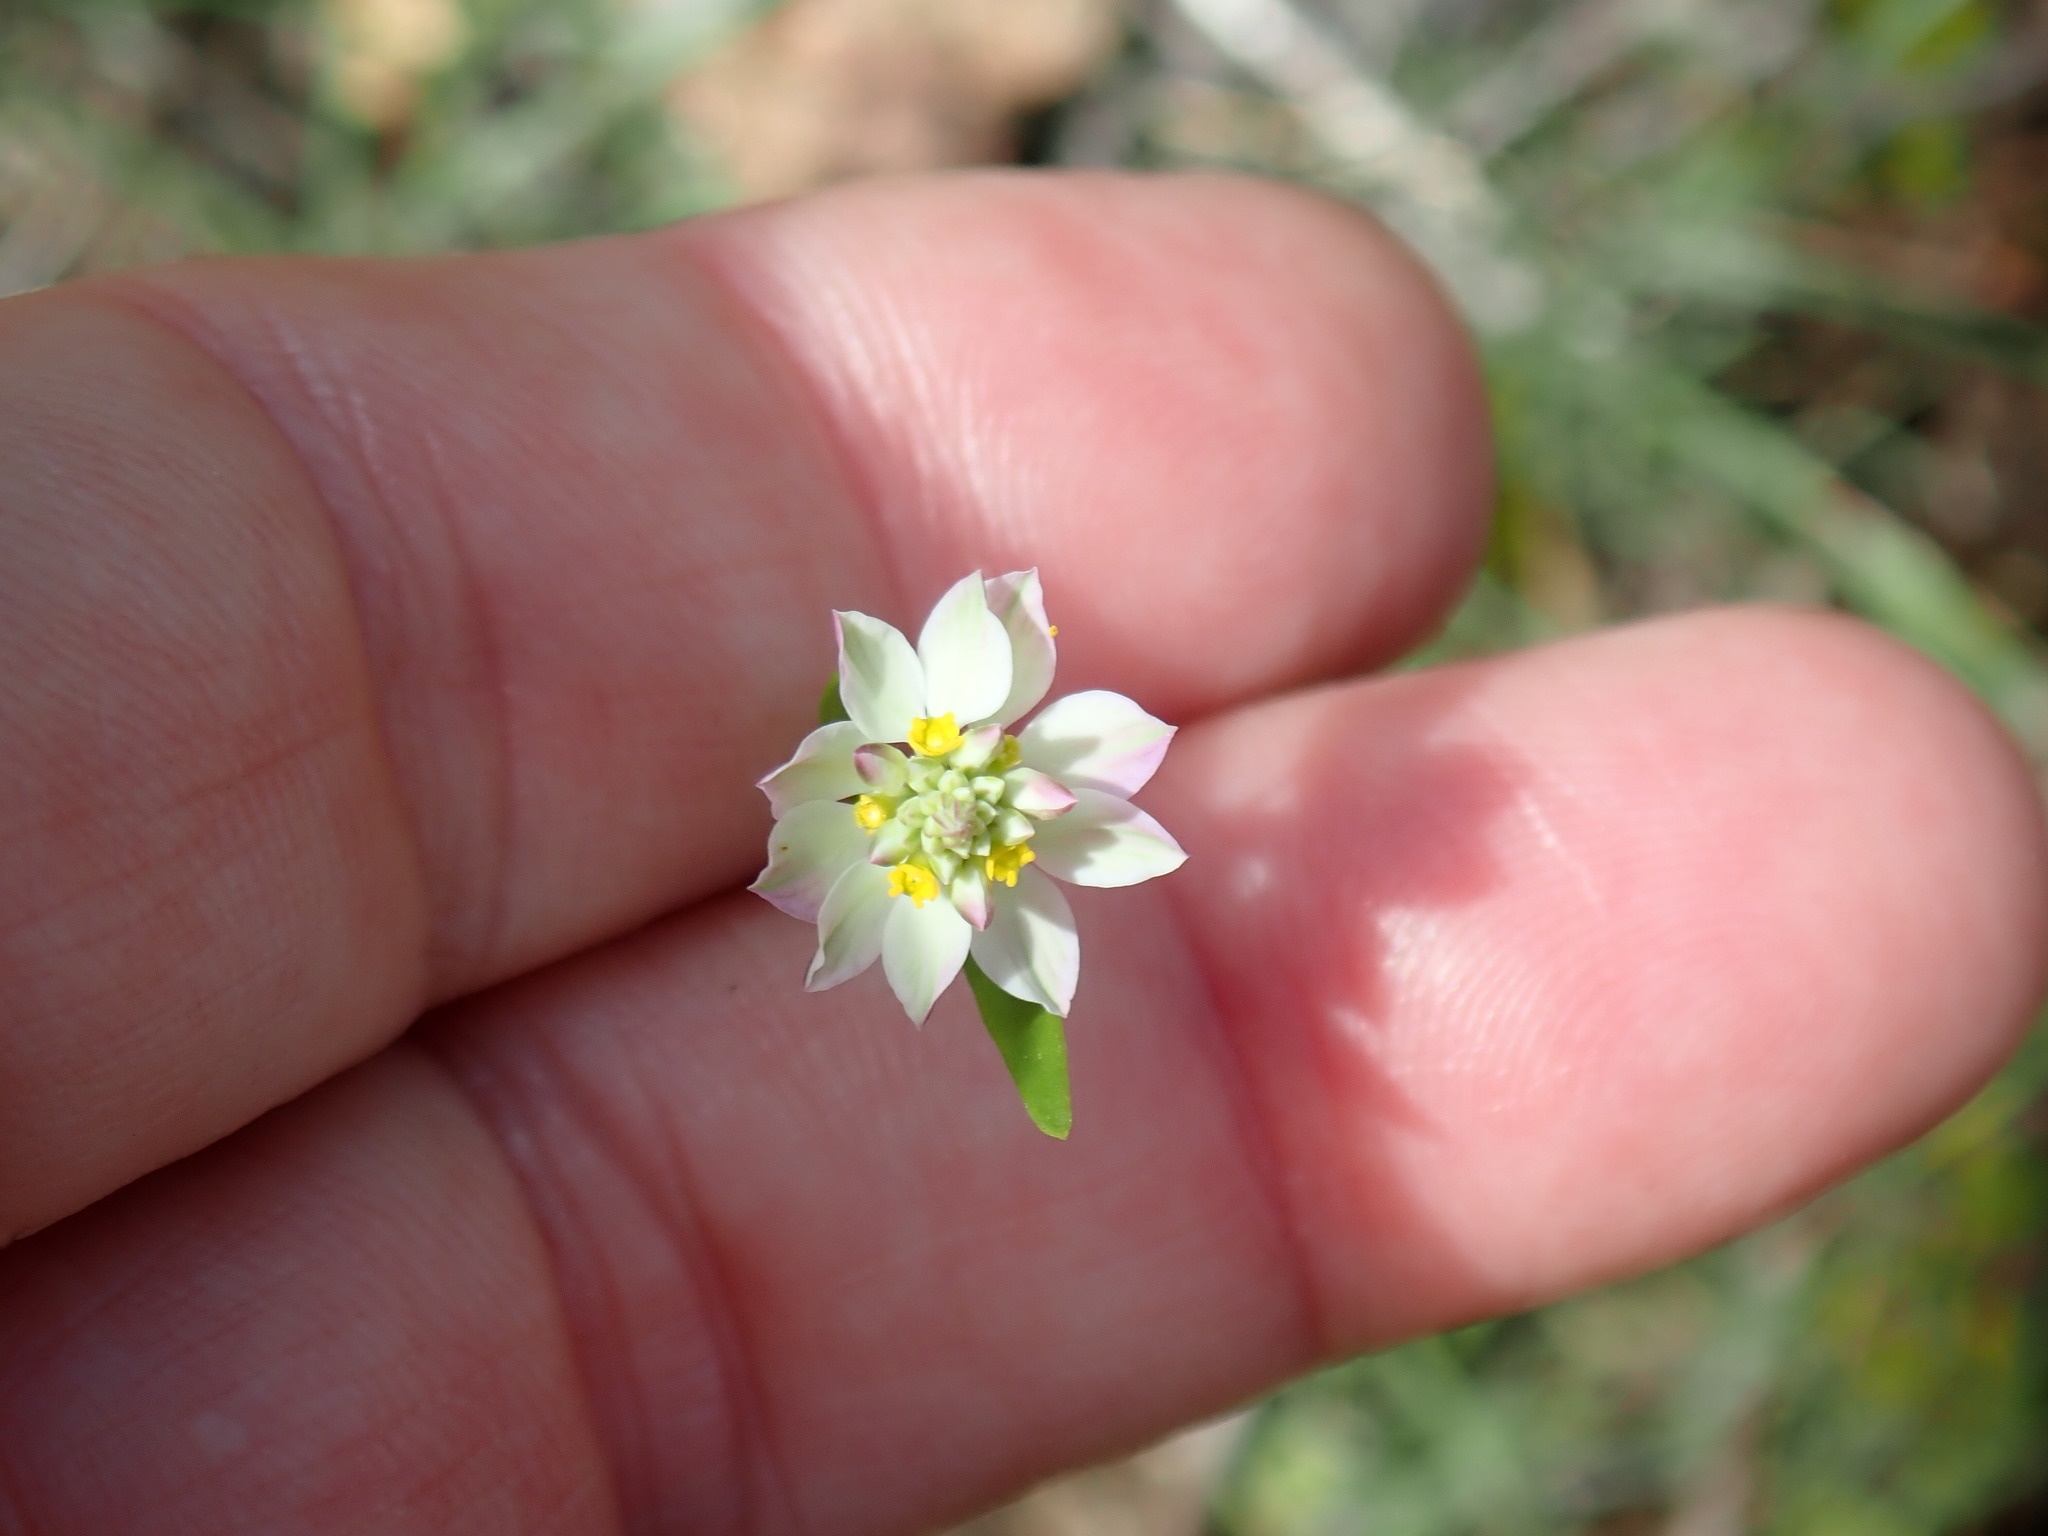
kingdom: Plantae
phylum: Tracheophyta
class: Magnoliopsida
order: Fabales
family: Polygalaceae
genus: Polygala
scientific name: Polygala sanguinea
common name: Blood milkwort
